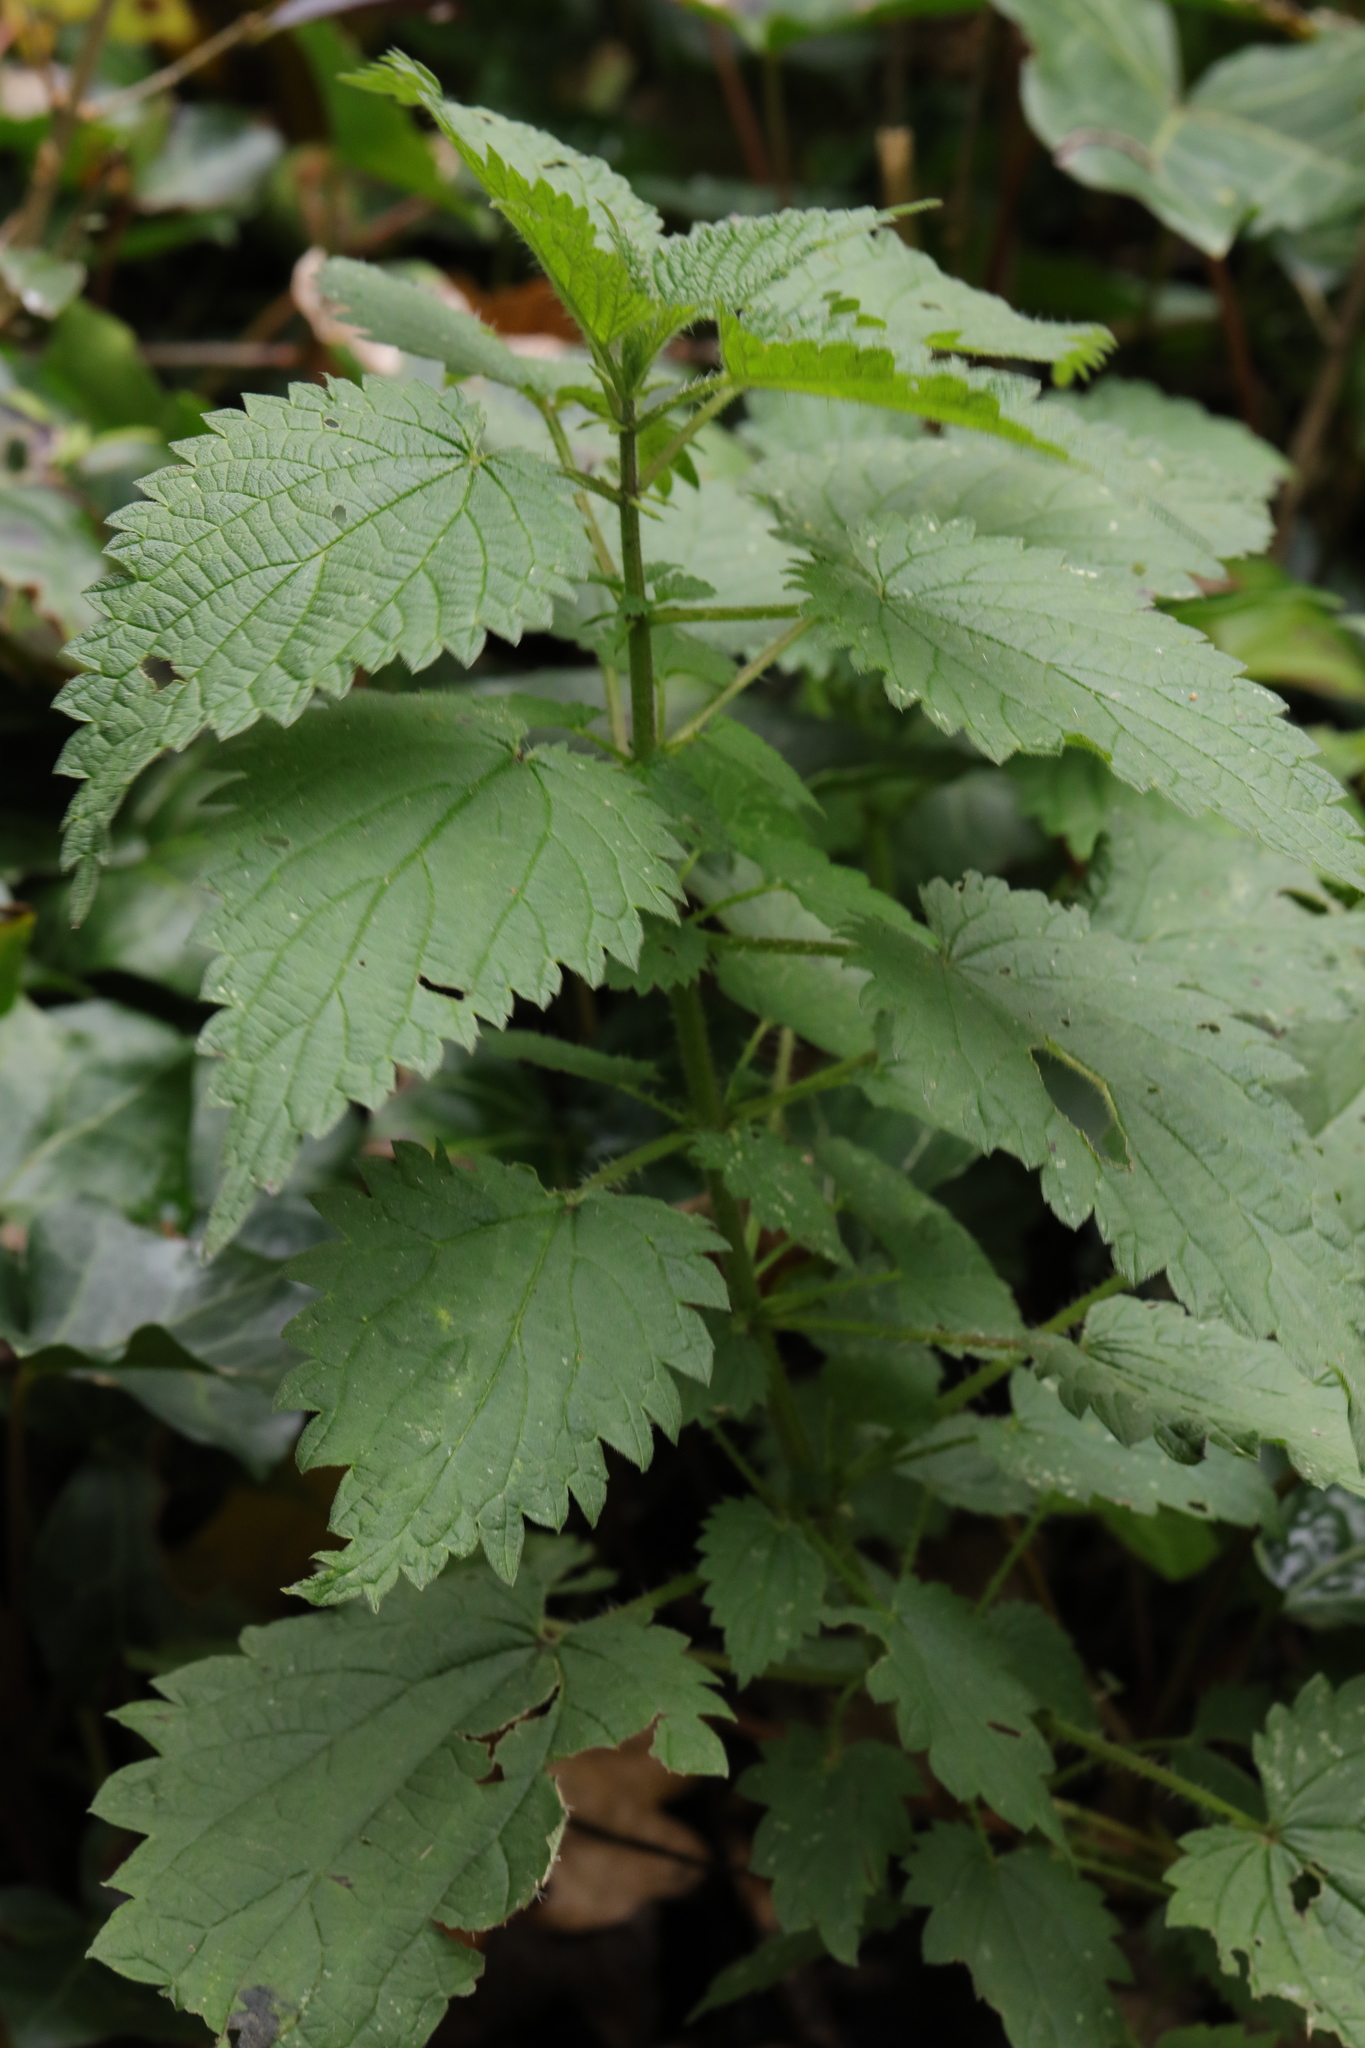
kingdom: Plantae
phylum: Tracheophyta
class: Magnoliopsida
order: Rosales
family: Urticaceae
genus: Urtica
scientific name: Urtica dioica
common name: Common nettle
